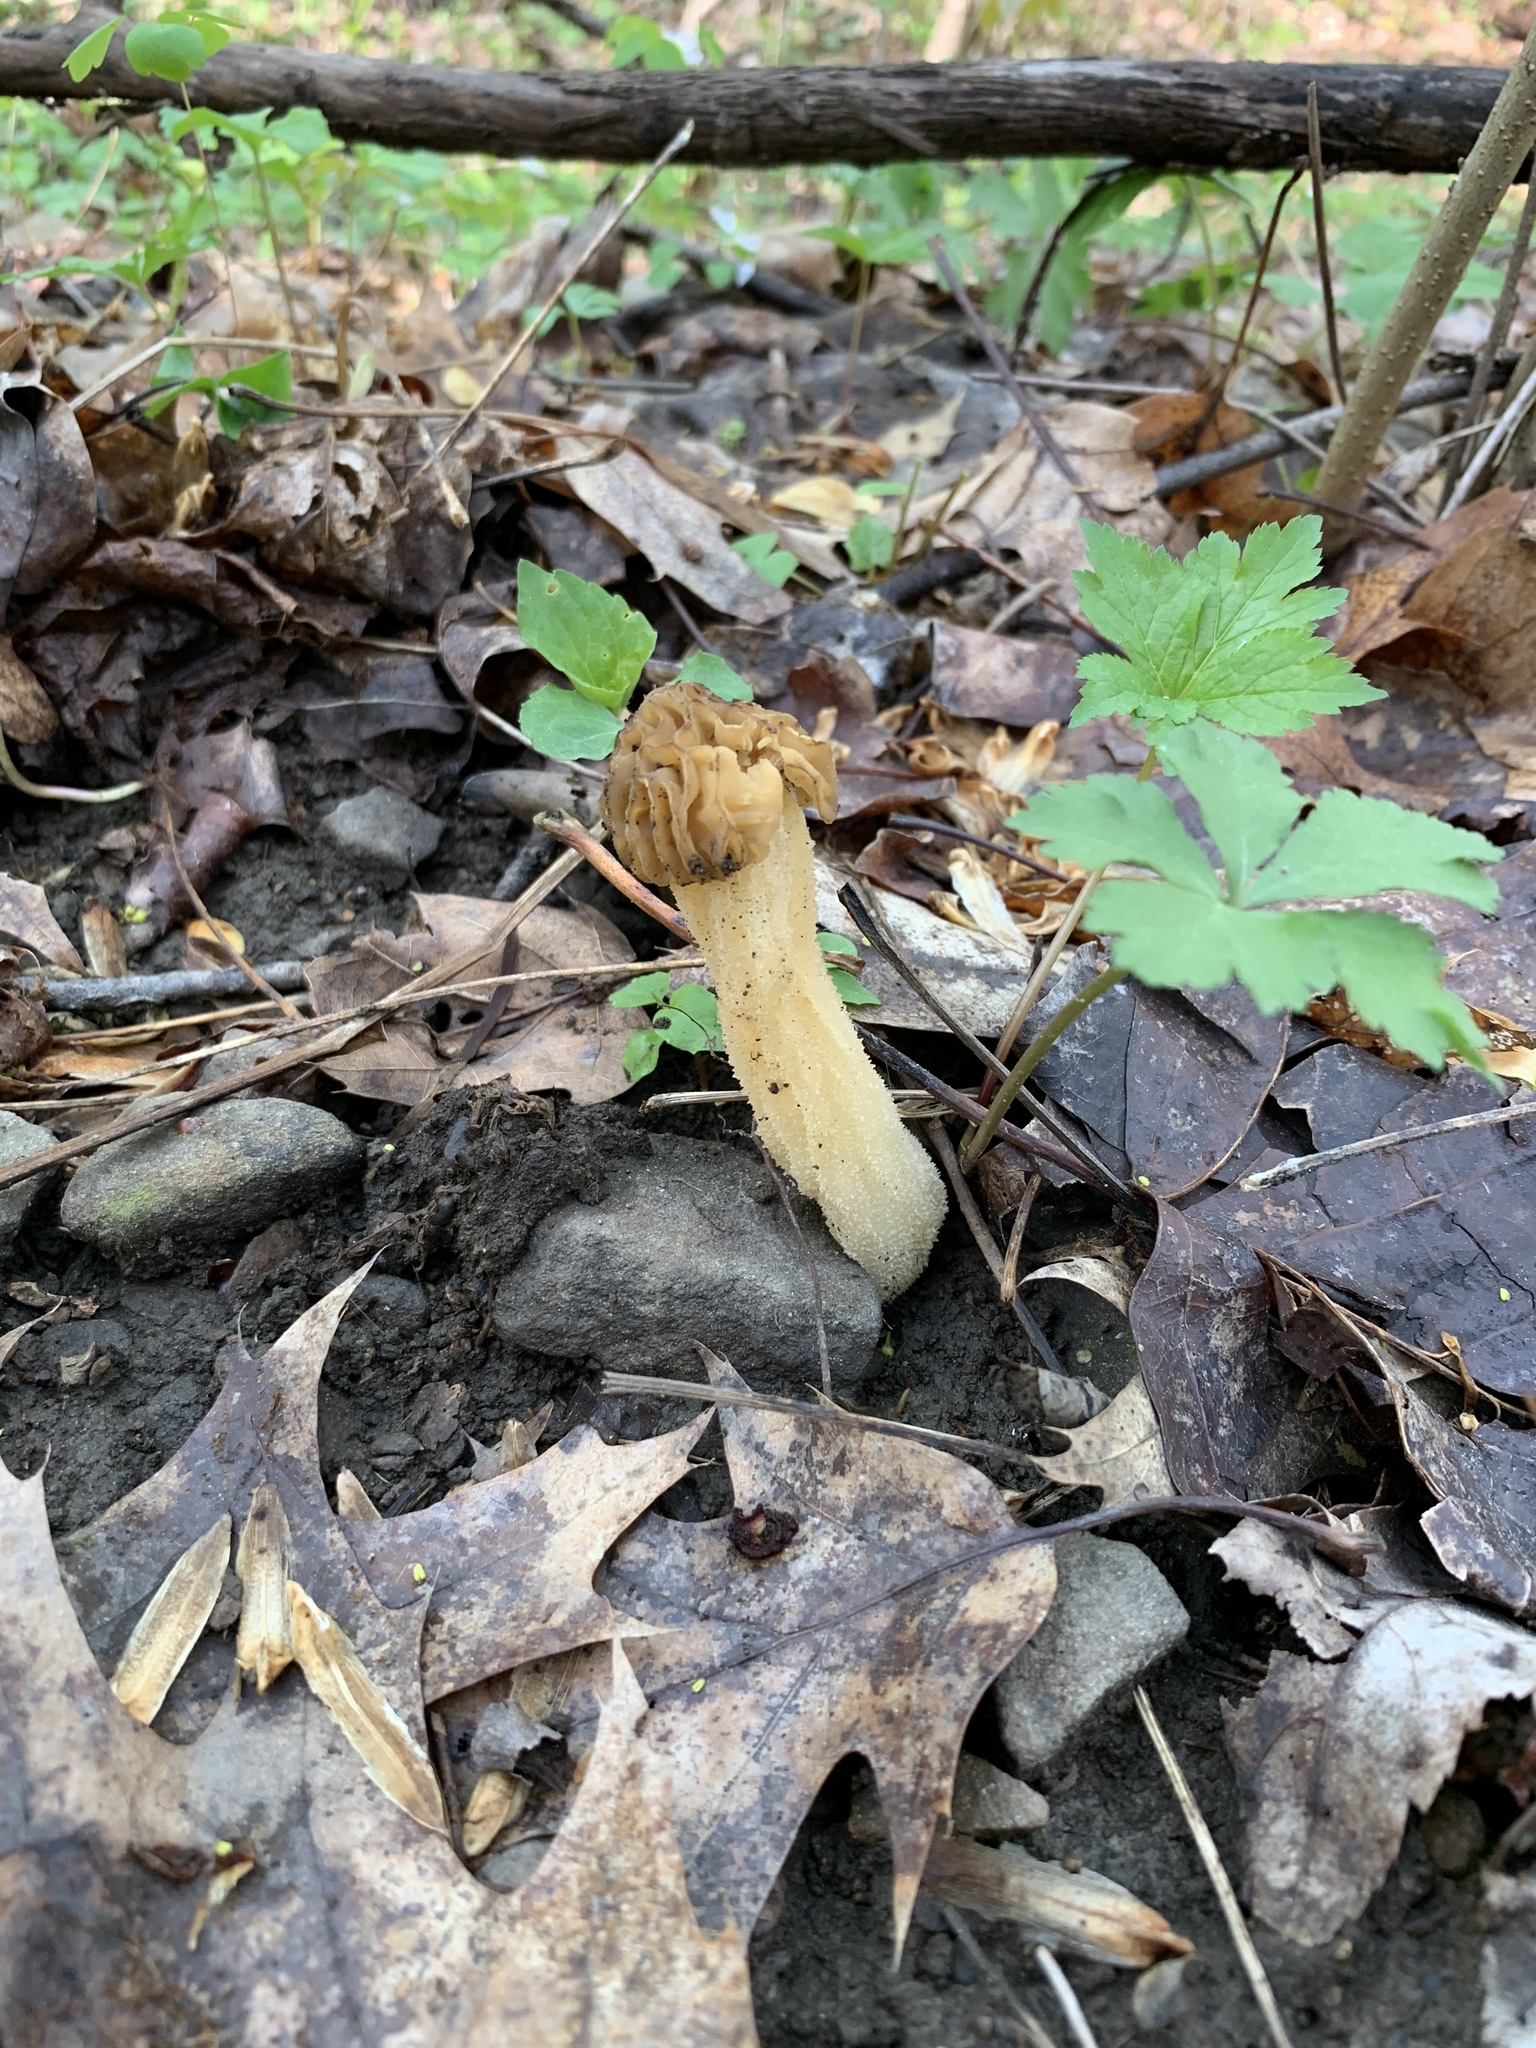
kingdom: Fungi
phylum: Ascomycota
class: Pezizomycetes
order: Pezizales
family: Morchellaceae
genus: Morchella
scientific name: Morchella punctipes
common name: Half-free morel
